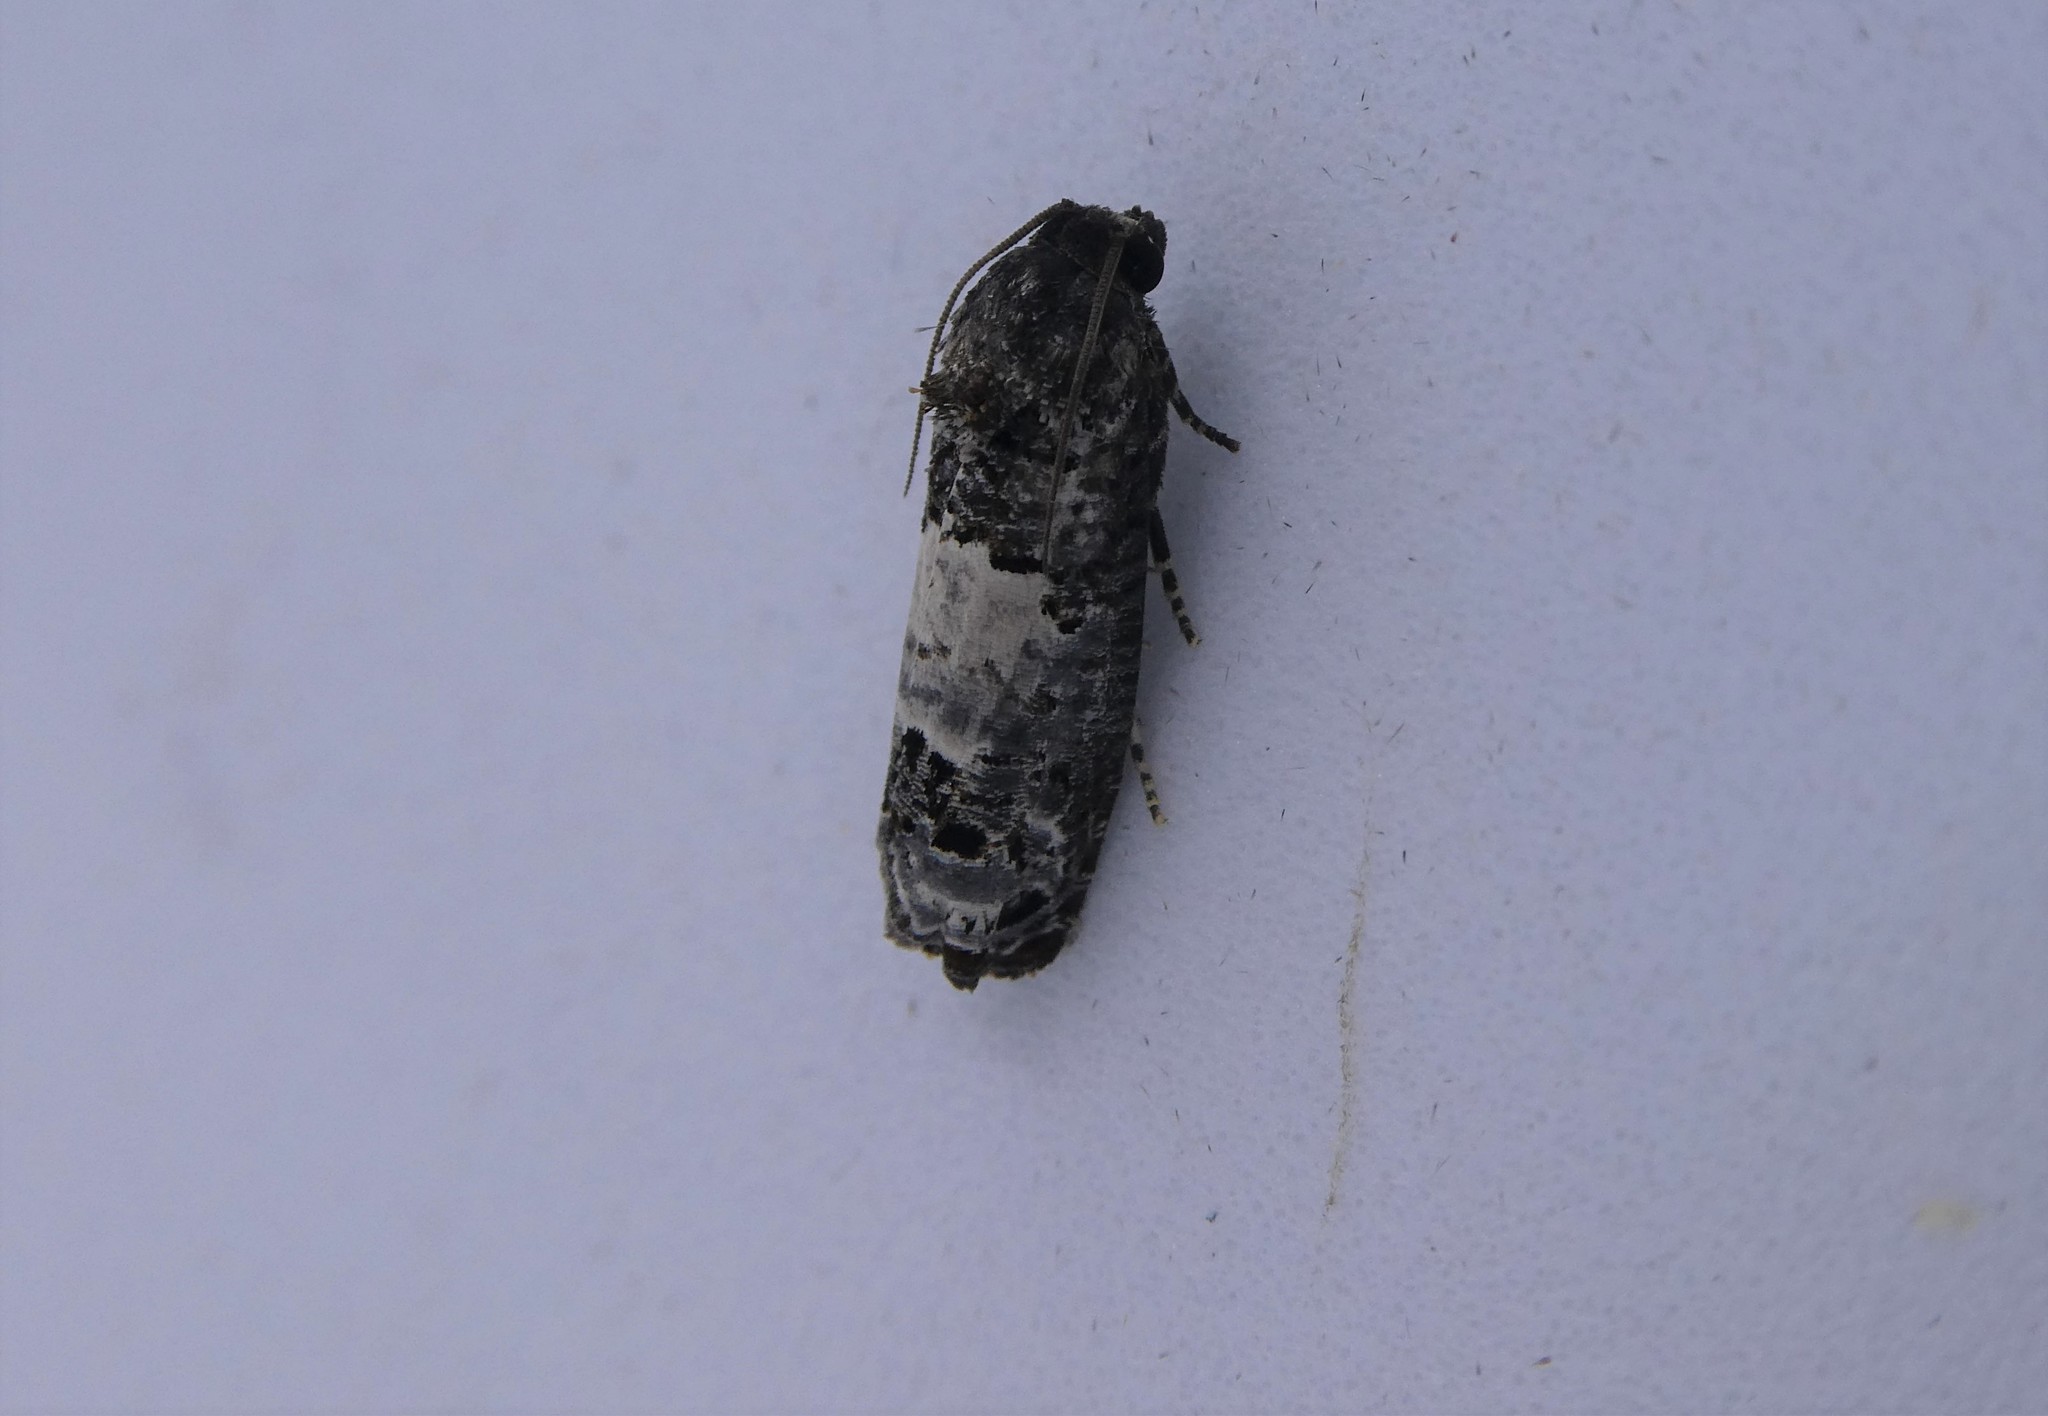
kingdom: Animalia
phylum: Arthropoda
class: Insecta
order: Lepidoptera
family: Tortricidae
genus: Epiblema
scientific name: Epiblema carolinana
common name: Gray-blotched epiblema moth
